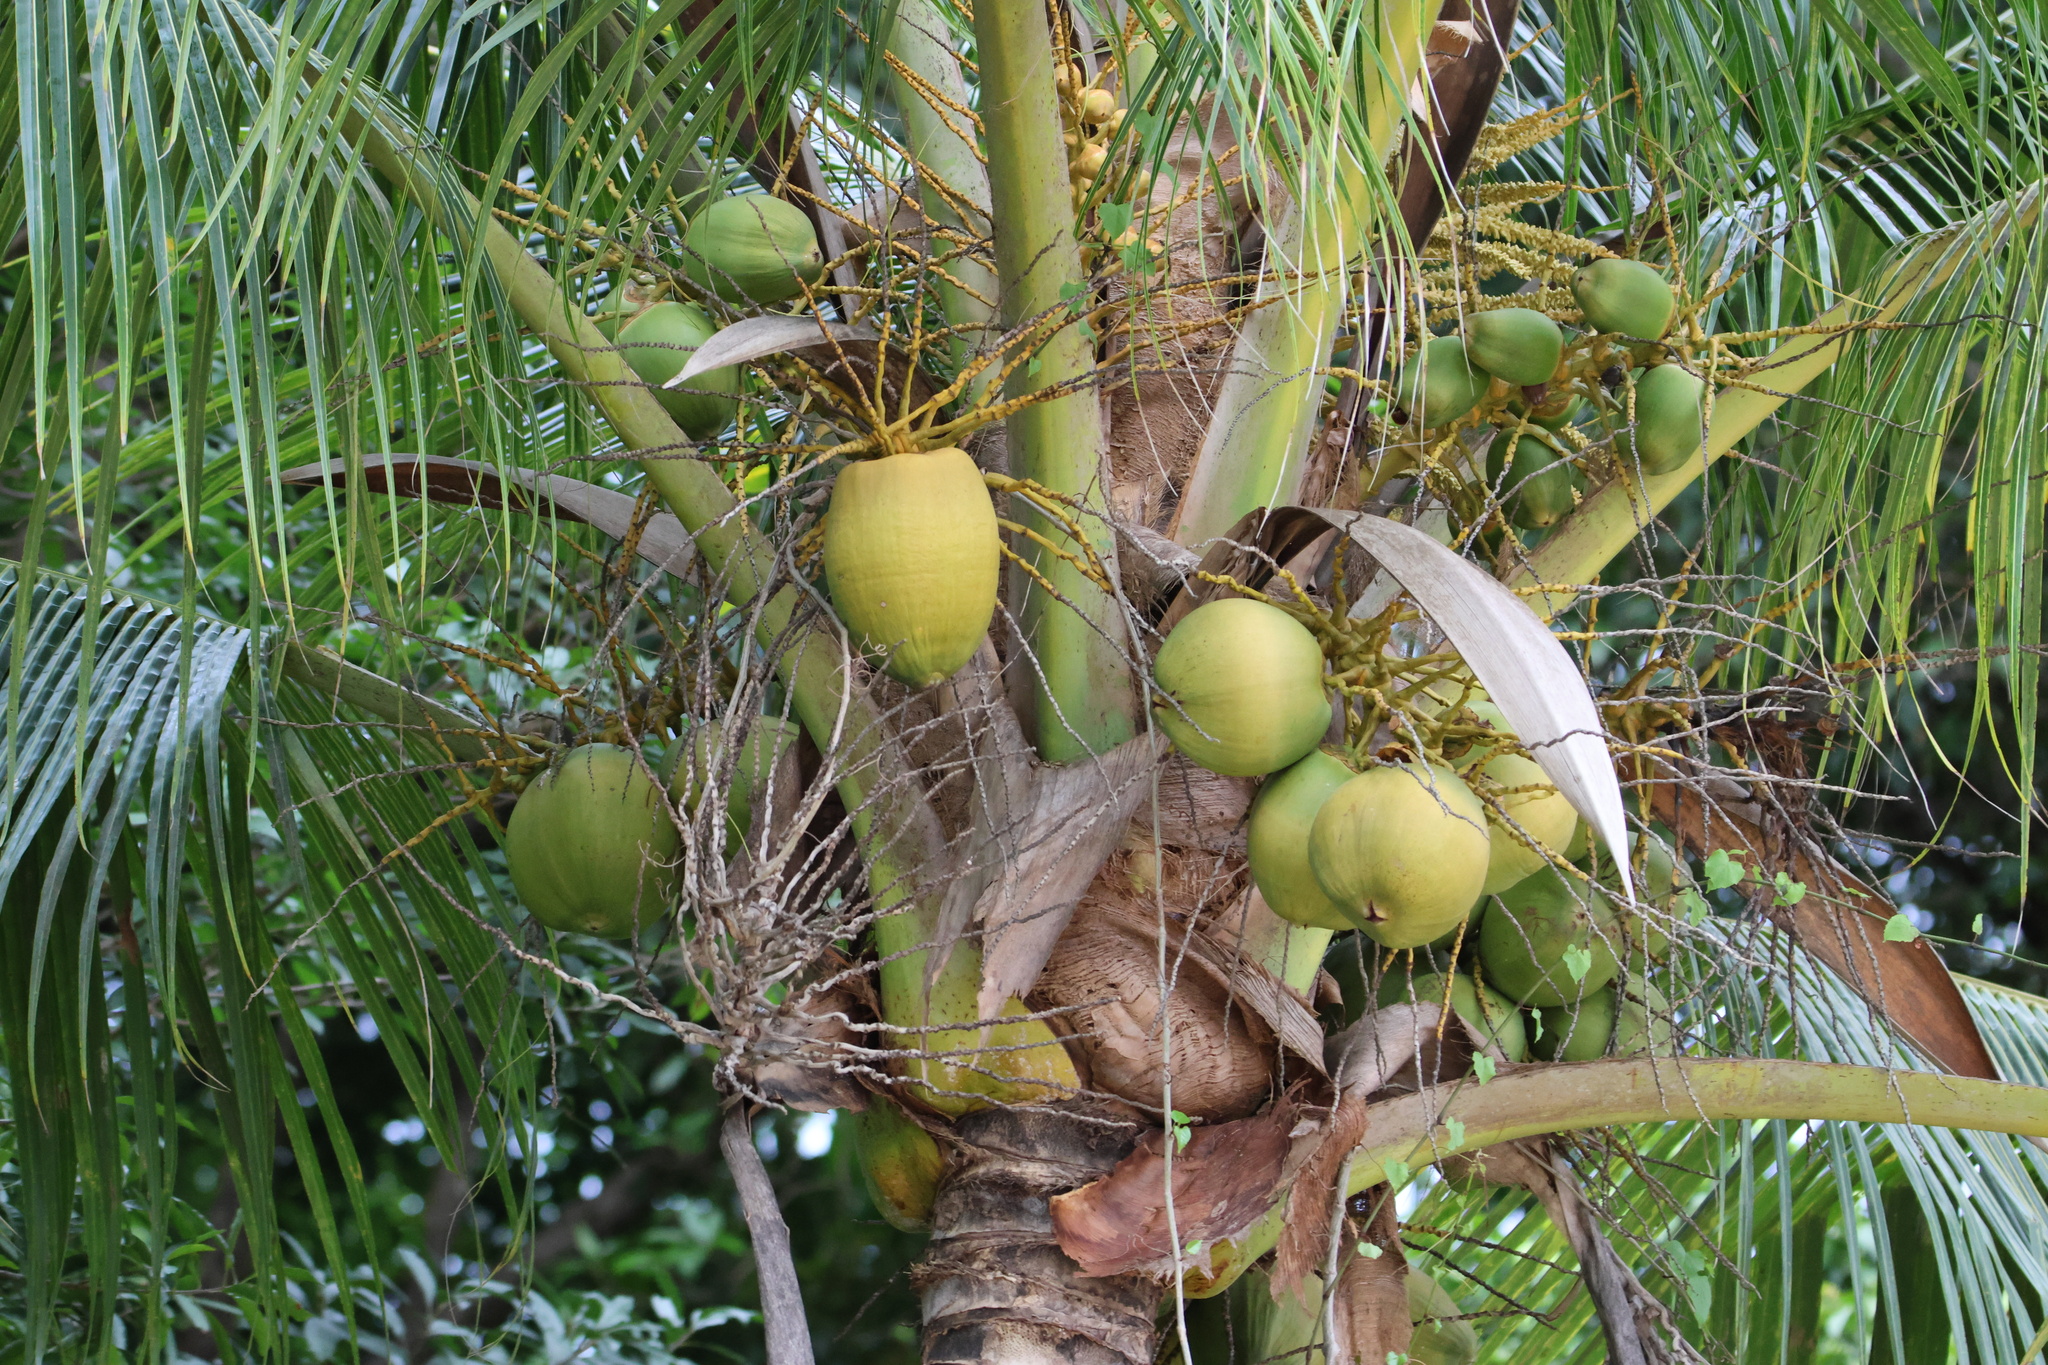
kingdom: Plantae
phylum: Tracheophyta
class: Liliopsida
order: Arecales
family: Arecaceae
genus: Cocos
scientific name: Cocos nucifera
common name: Coconut palm
